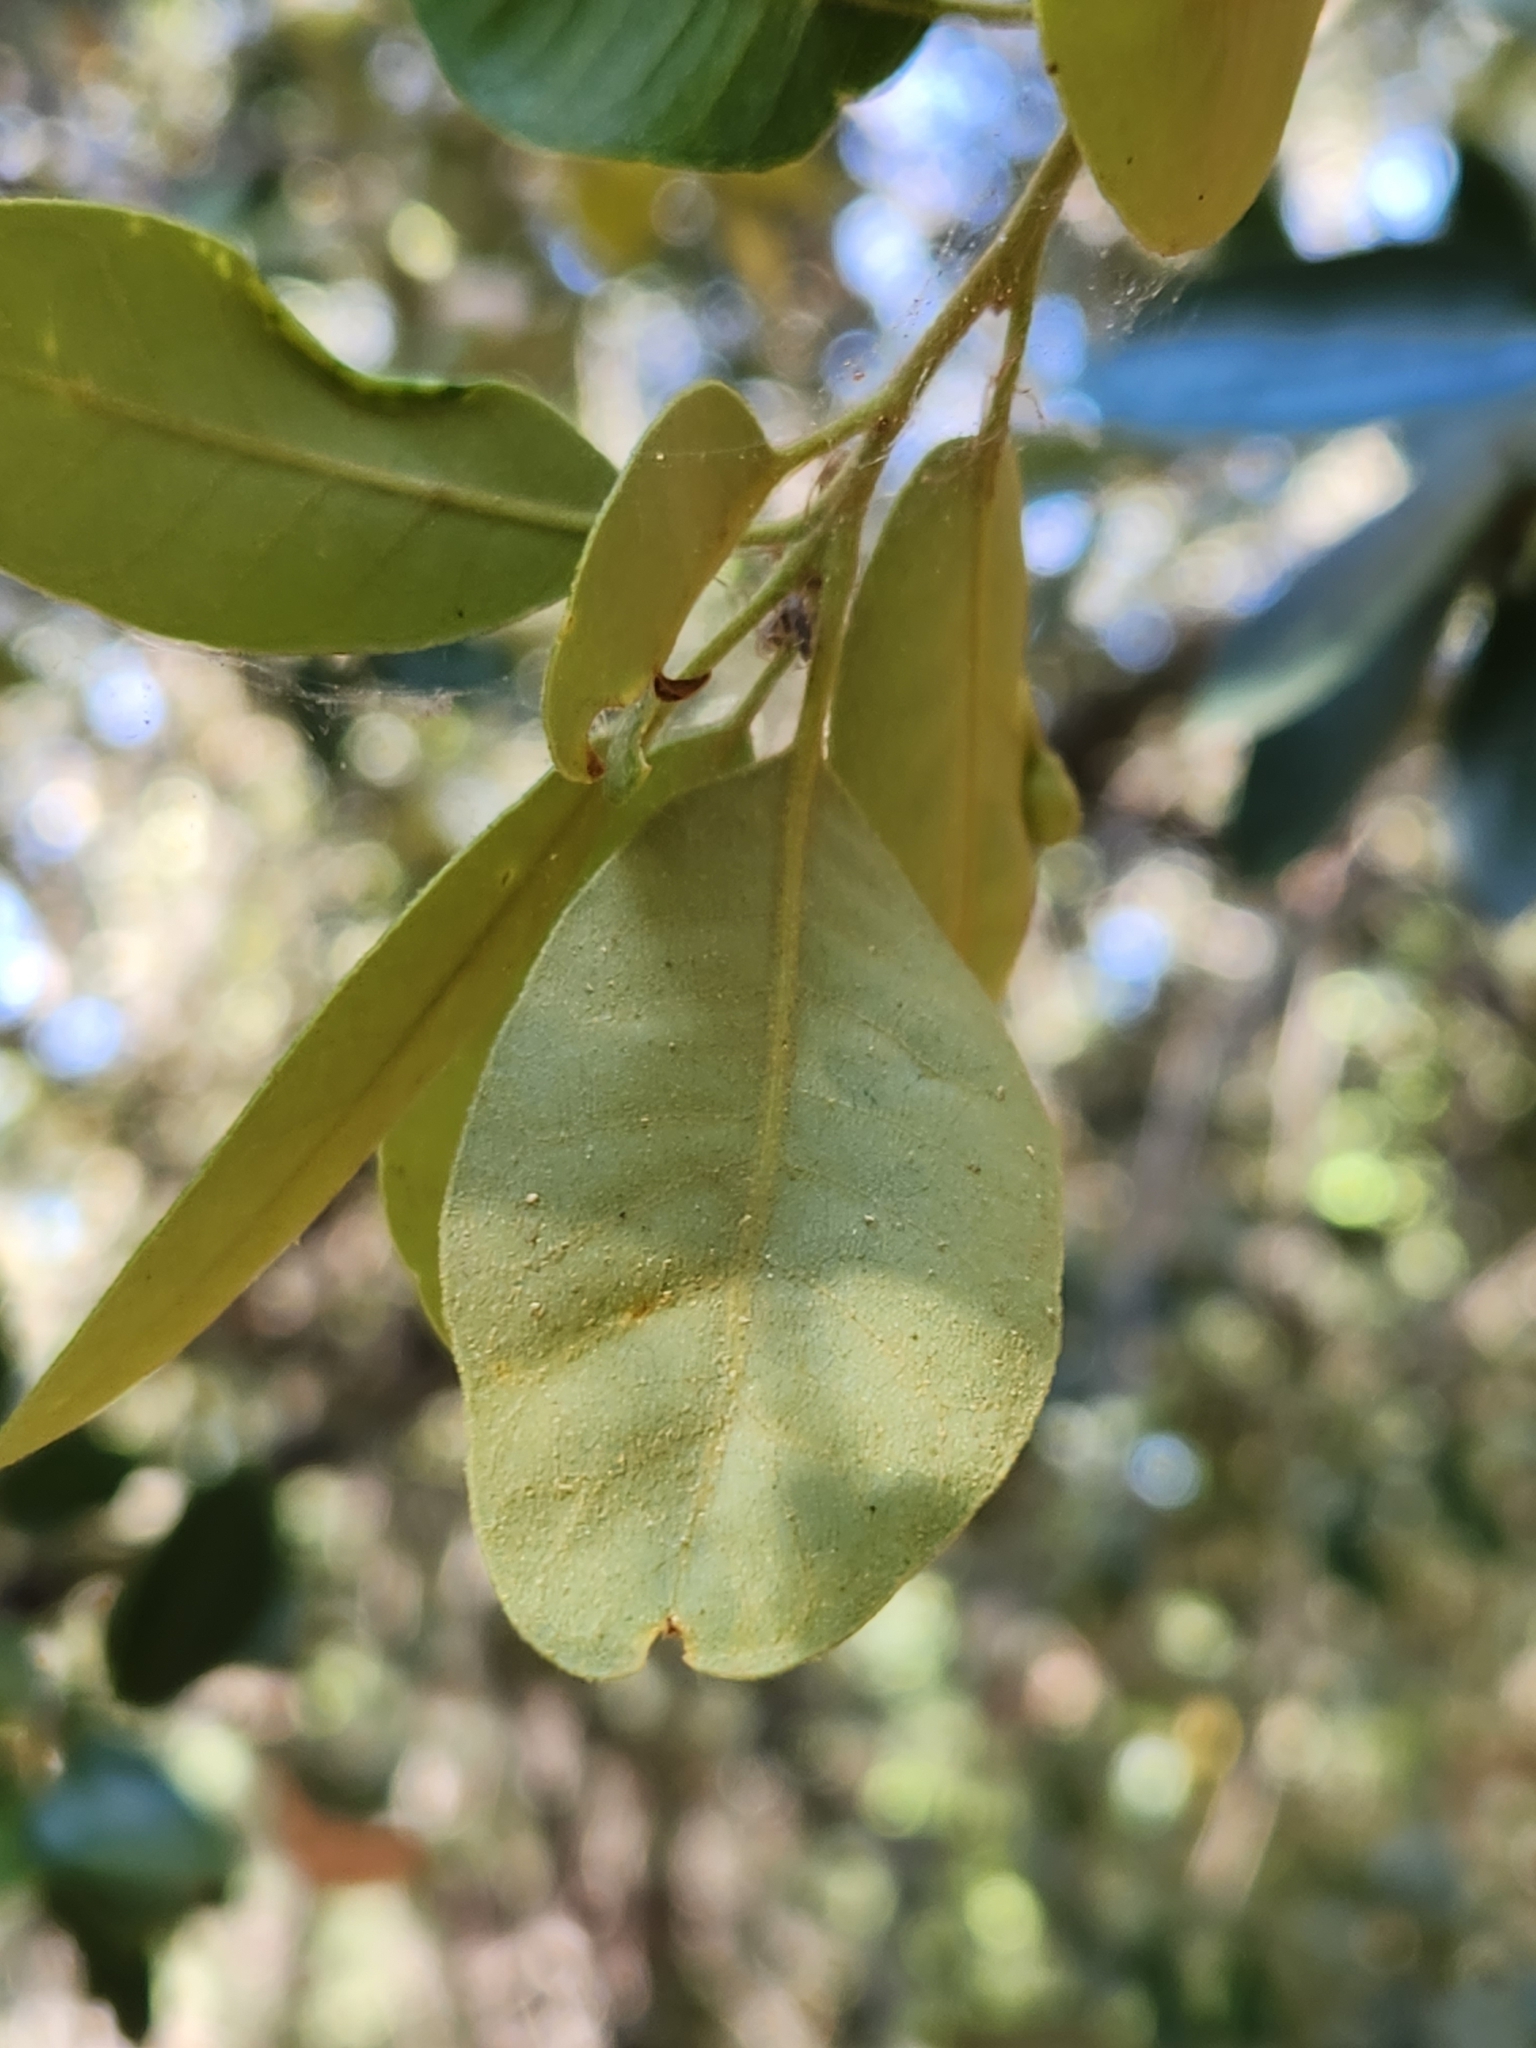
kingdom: Plantae
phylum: Tracheophyta
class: Magnoliopsida
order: Fagales
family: Fagaceae
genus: Quercus
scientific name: Quercus chrysolepis
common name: Canyon live oak
